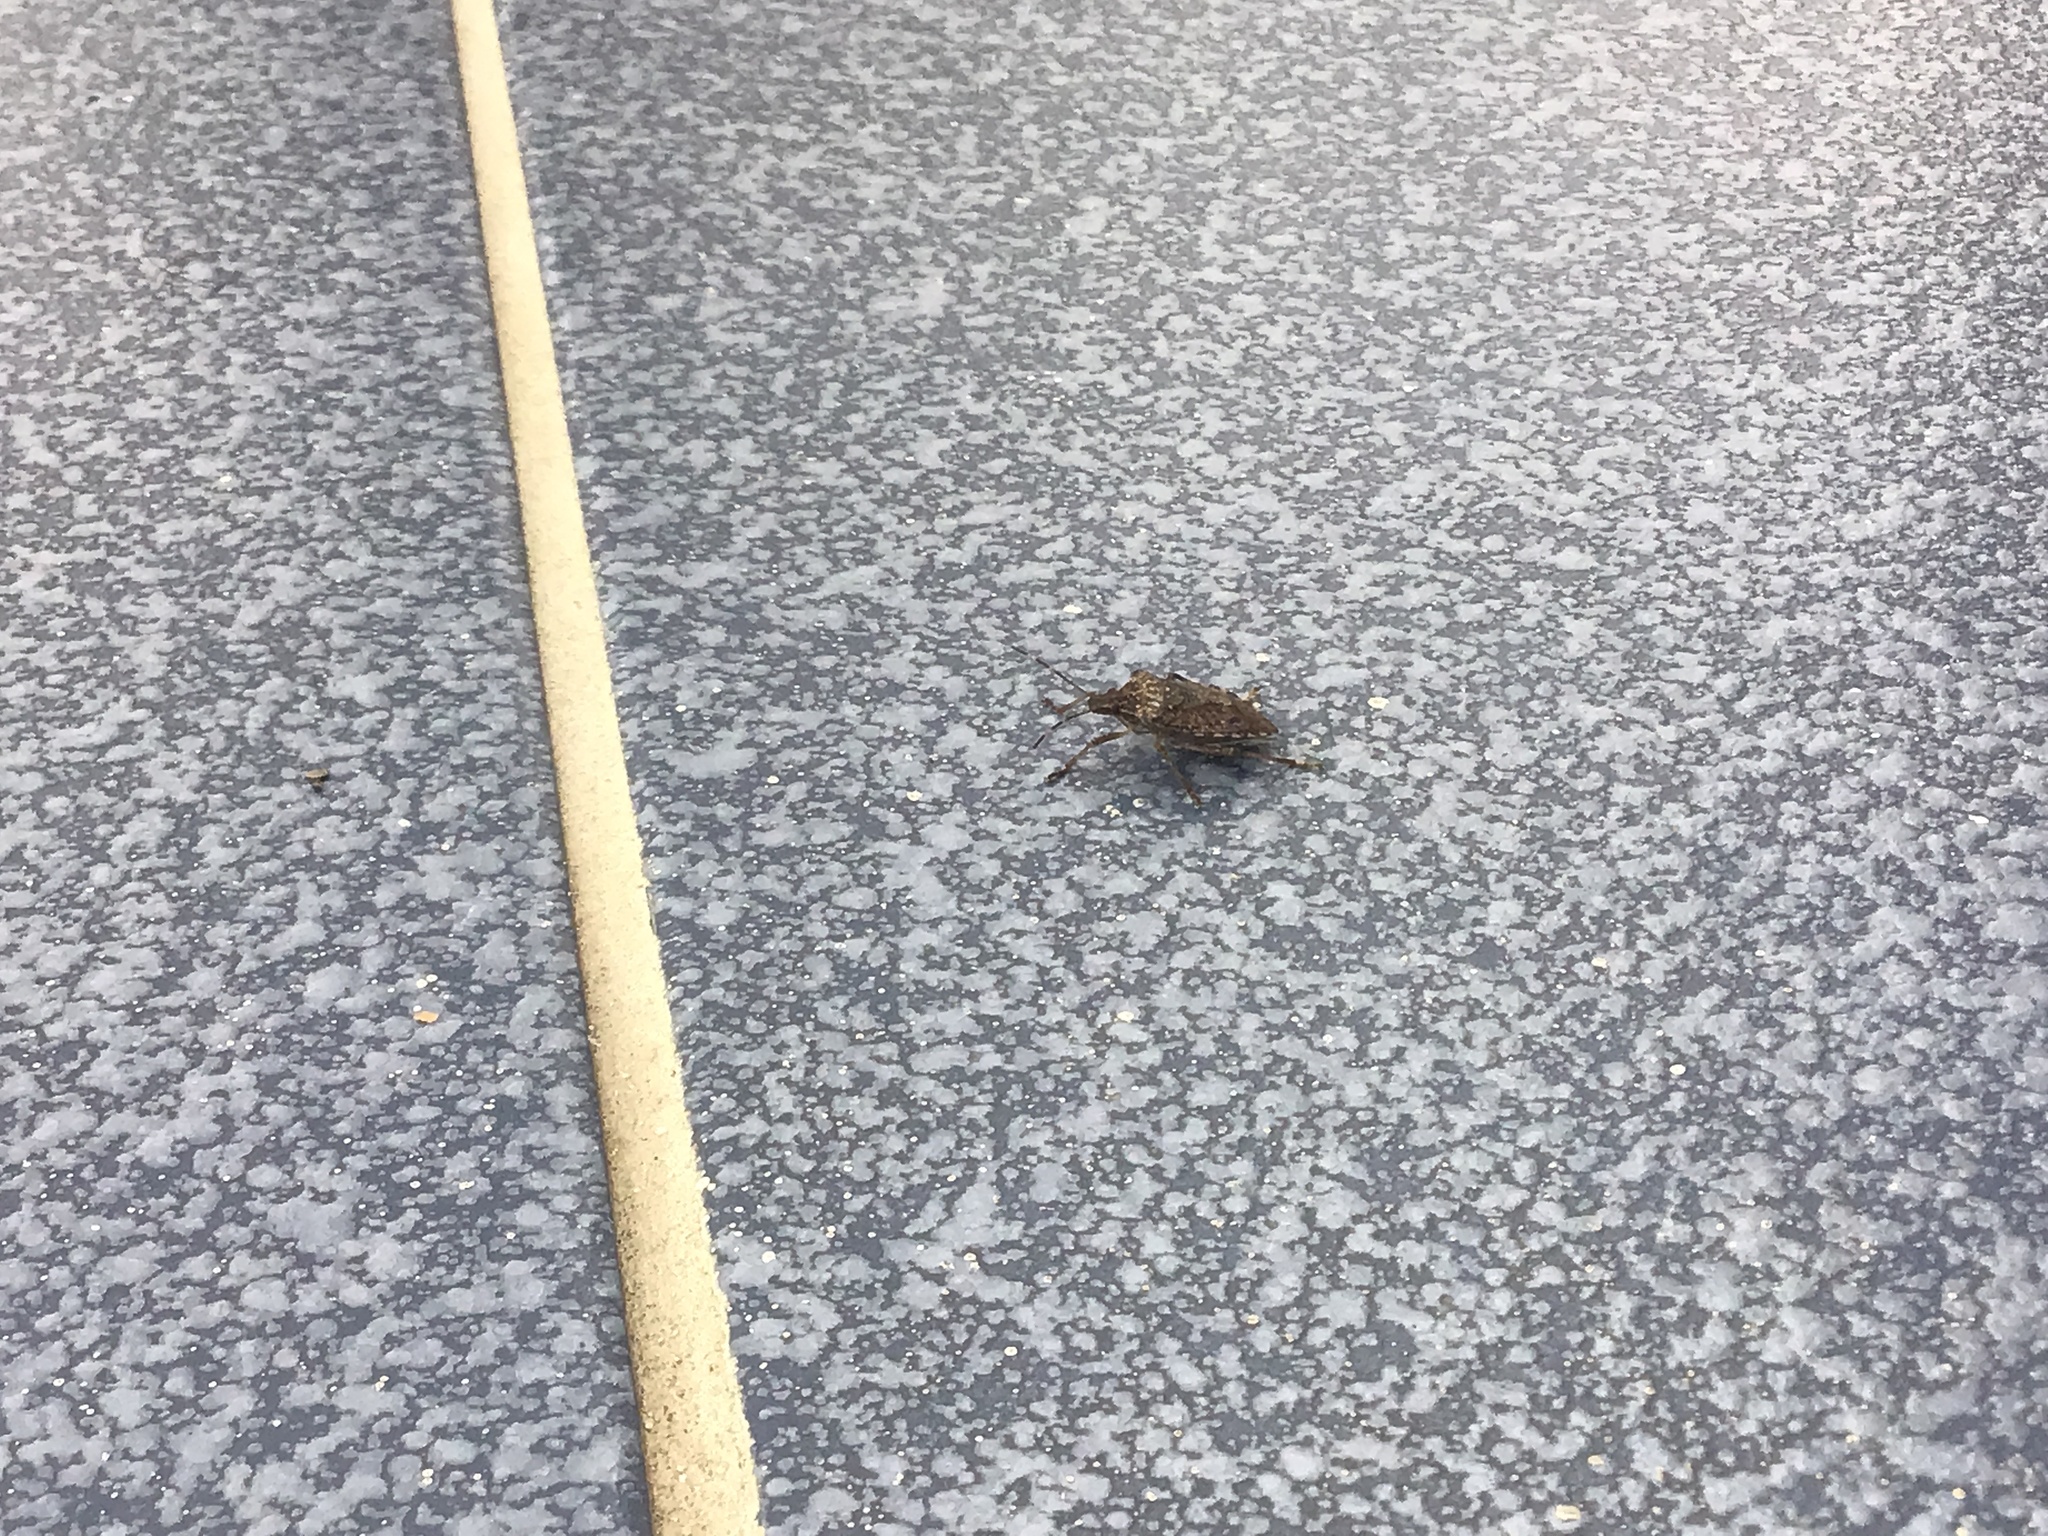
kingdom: Animalia
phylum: Arthropoda
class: Insecta
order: Hemiptera
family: Pentatomidae
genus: Halyomorpha
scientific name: Halyomorpha halys
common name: Brown marmorated stink bug
